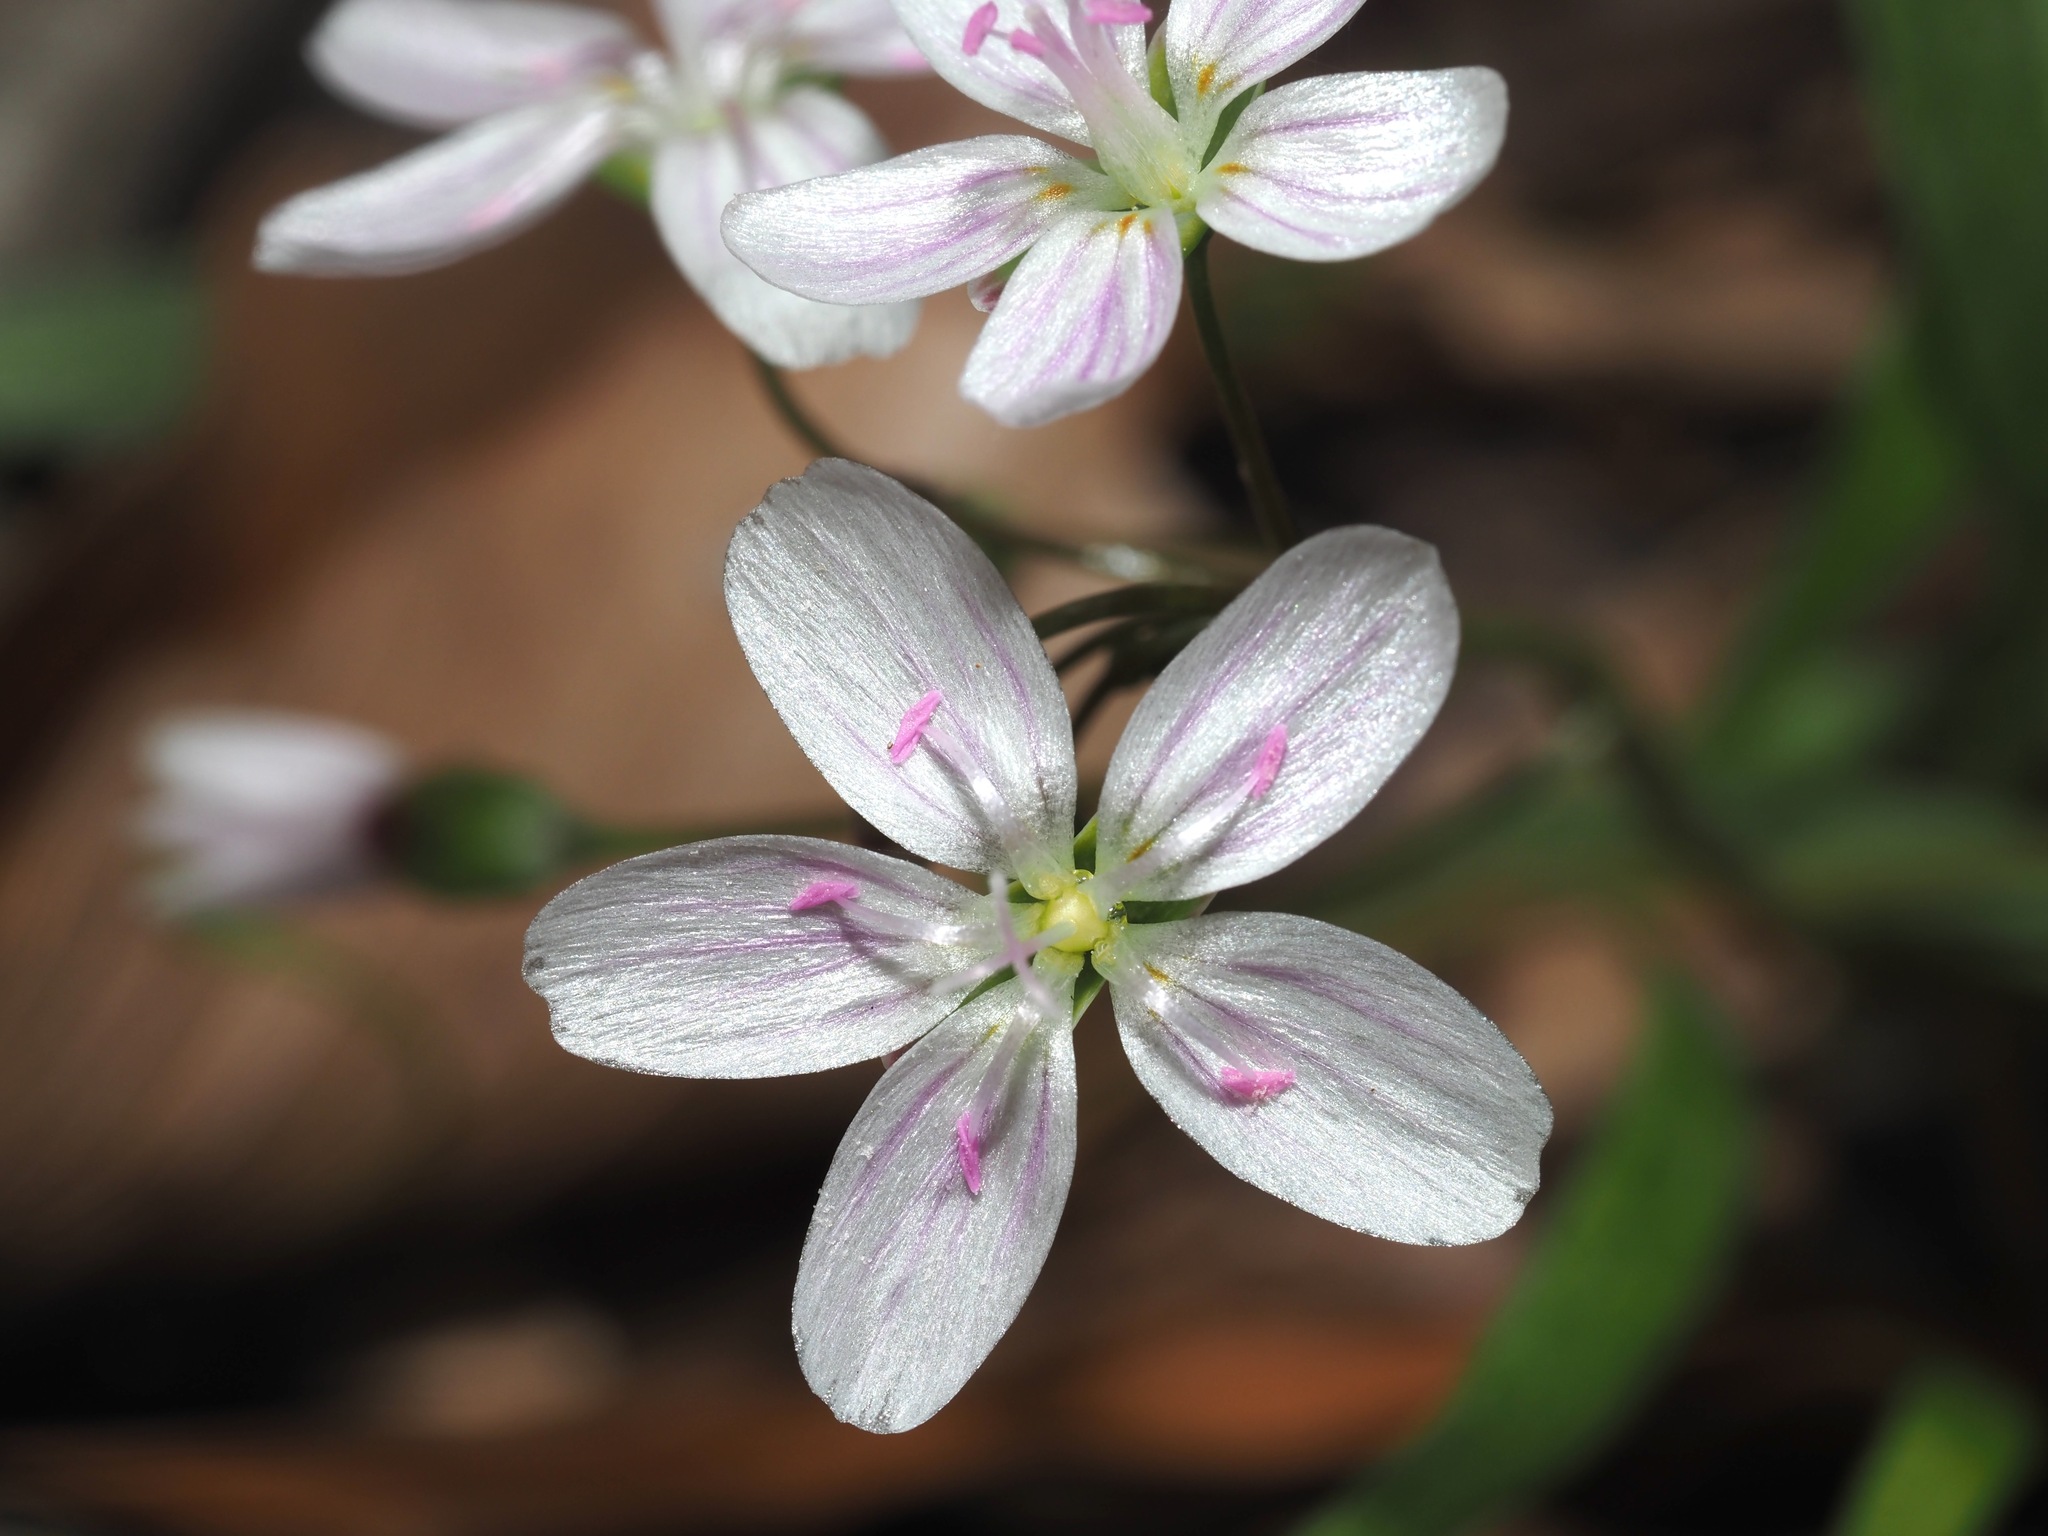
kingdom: Plantae
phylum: Tracheophyta
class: Magnoliopsida
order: Caryophyllales
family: Montiaceae
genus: Claytonia
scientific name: Claytonia virginica
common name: Virginia springbeauty
